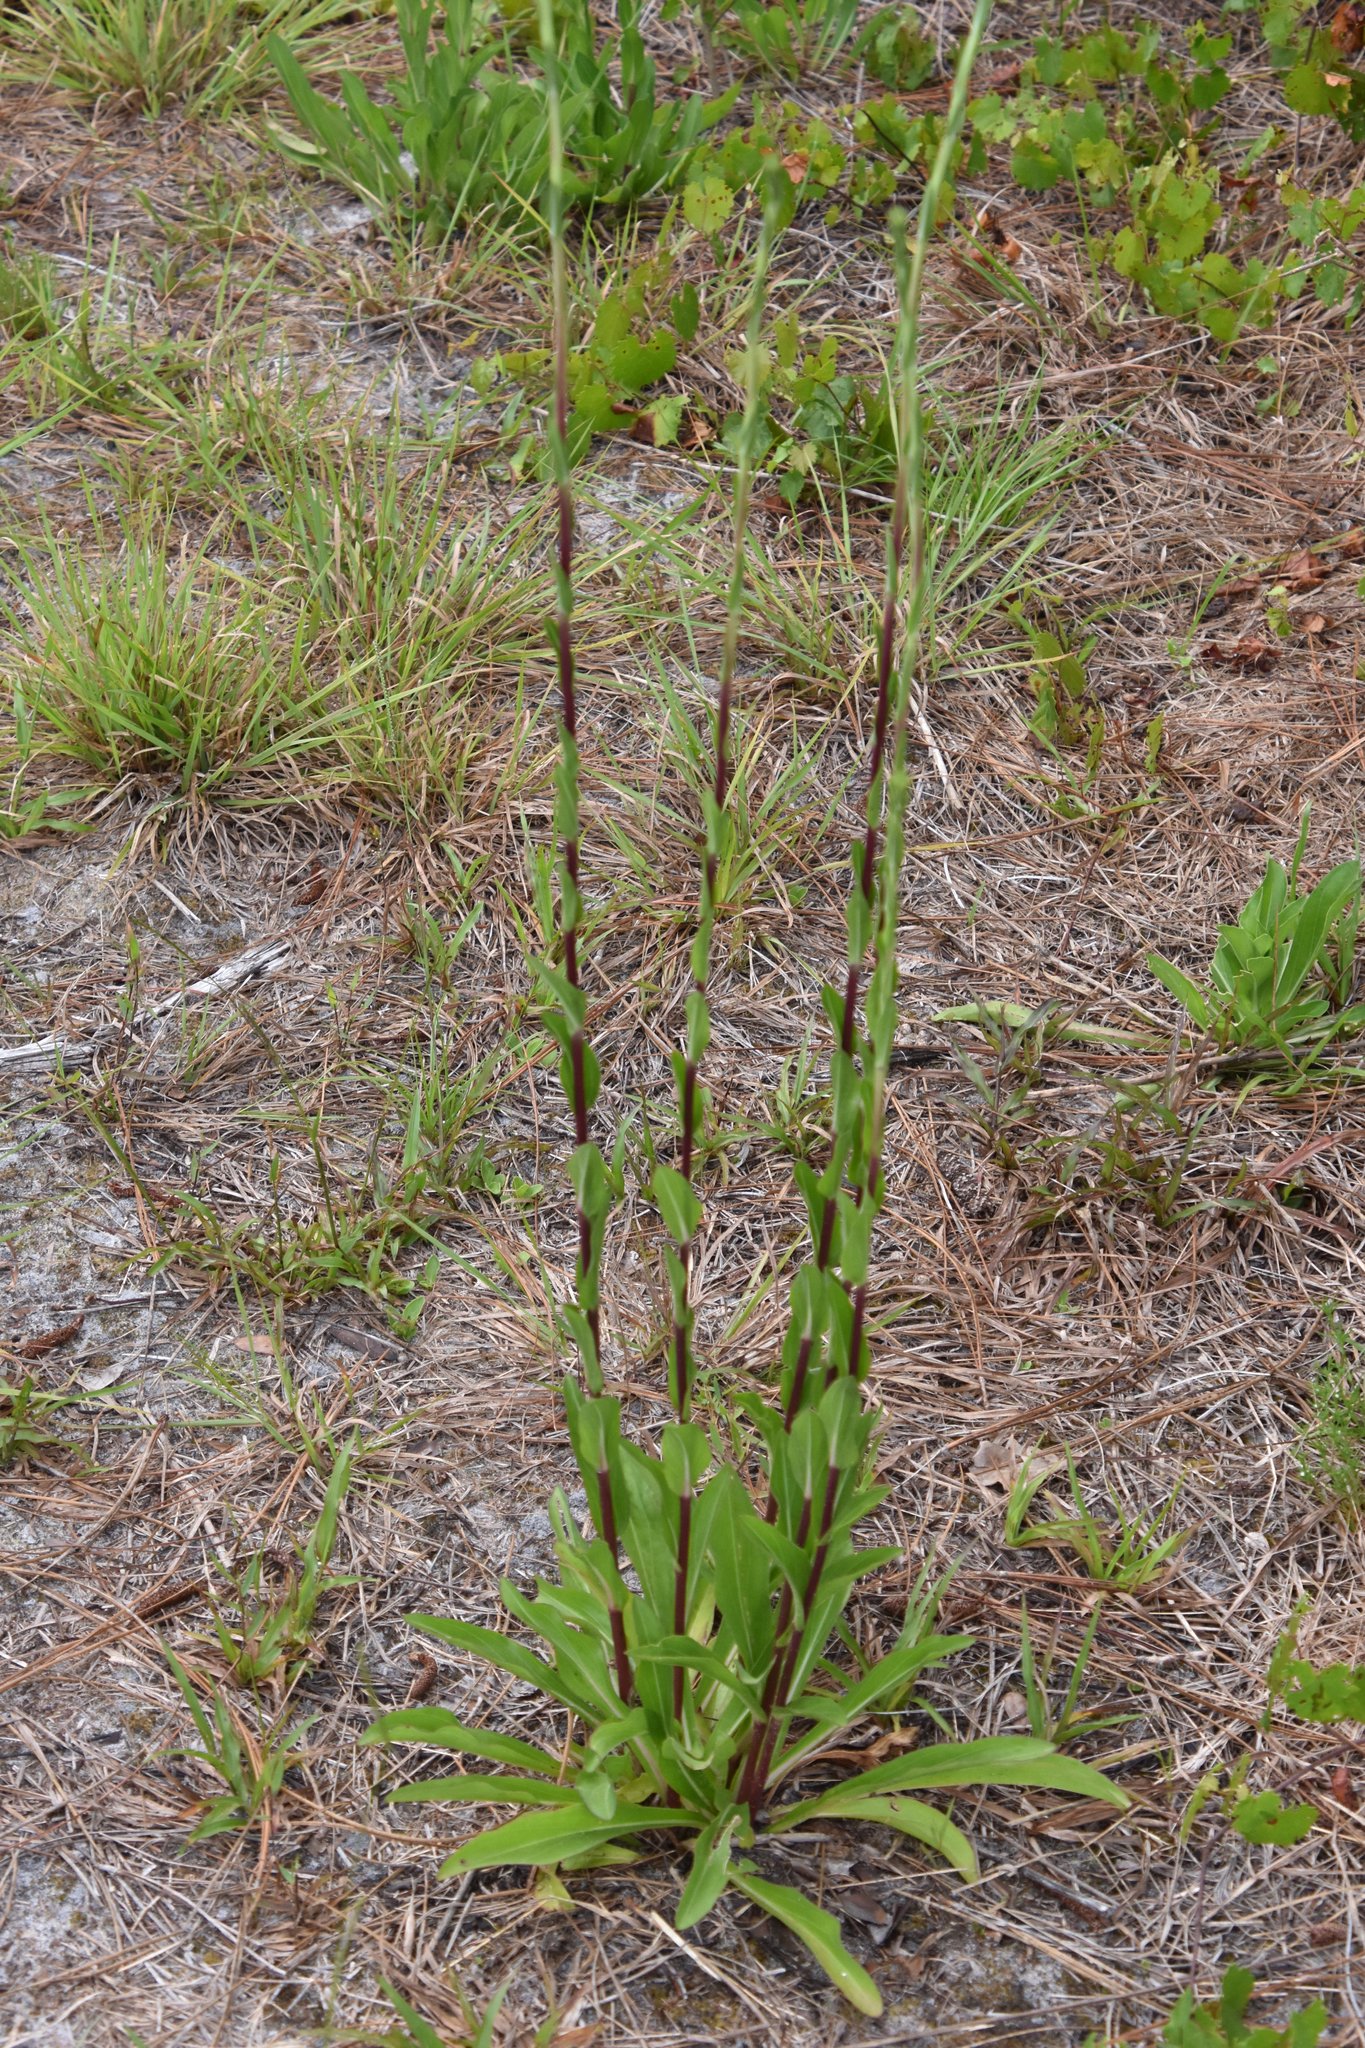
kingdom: Plantae
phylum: Tracheophyta
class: Magnoliopsida
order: Asterales
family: Asteraceae
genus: Carphephorus
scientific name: Carphephorus
